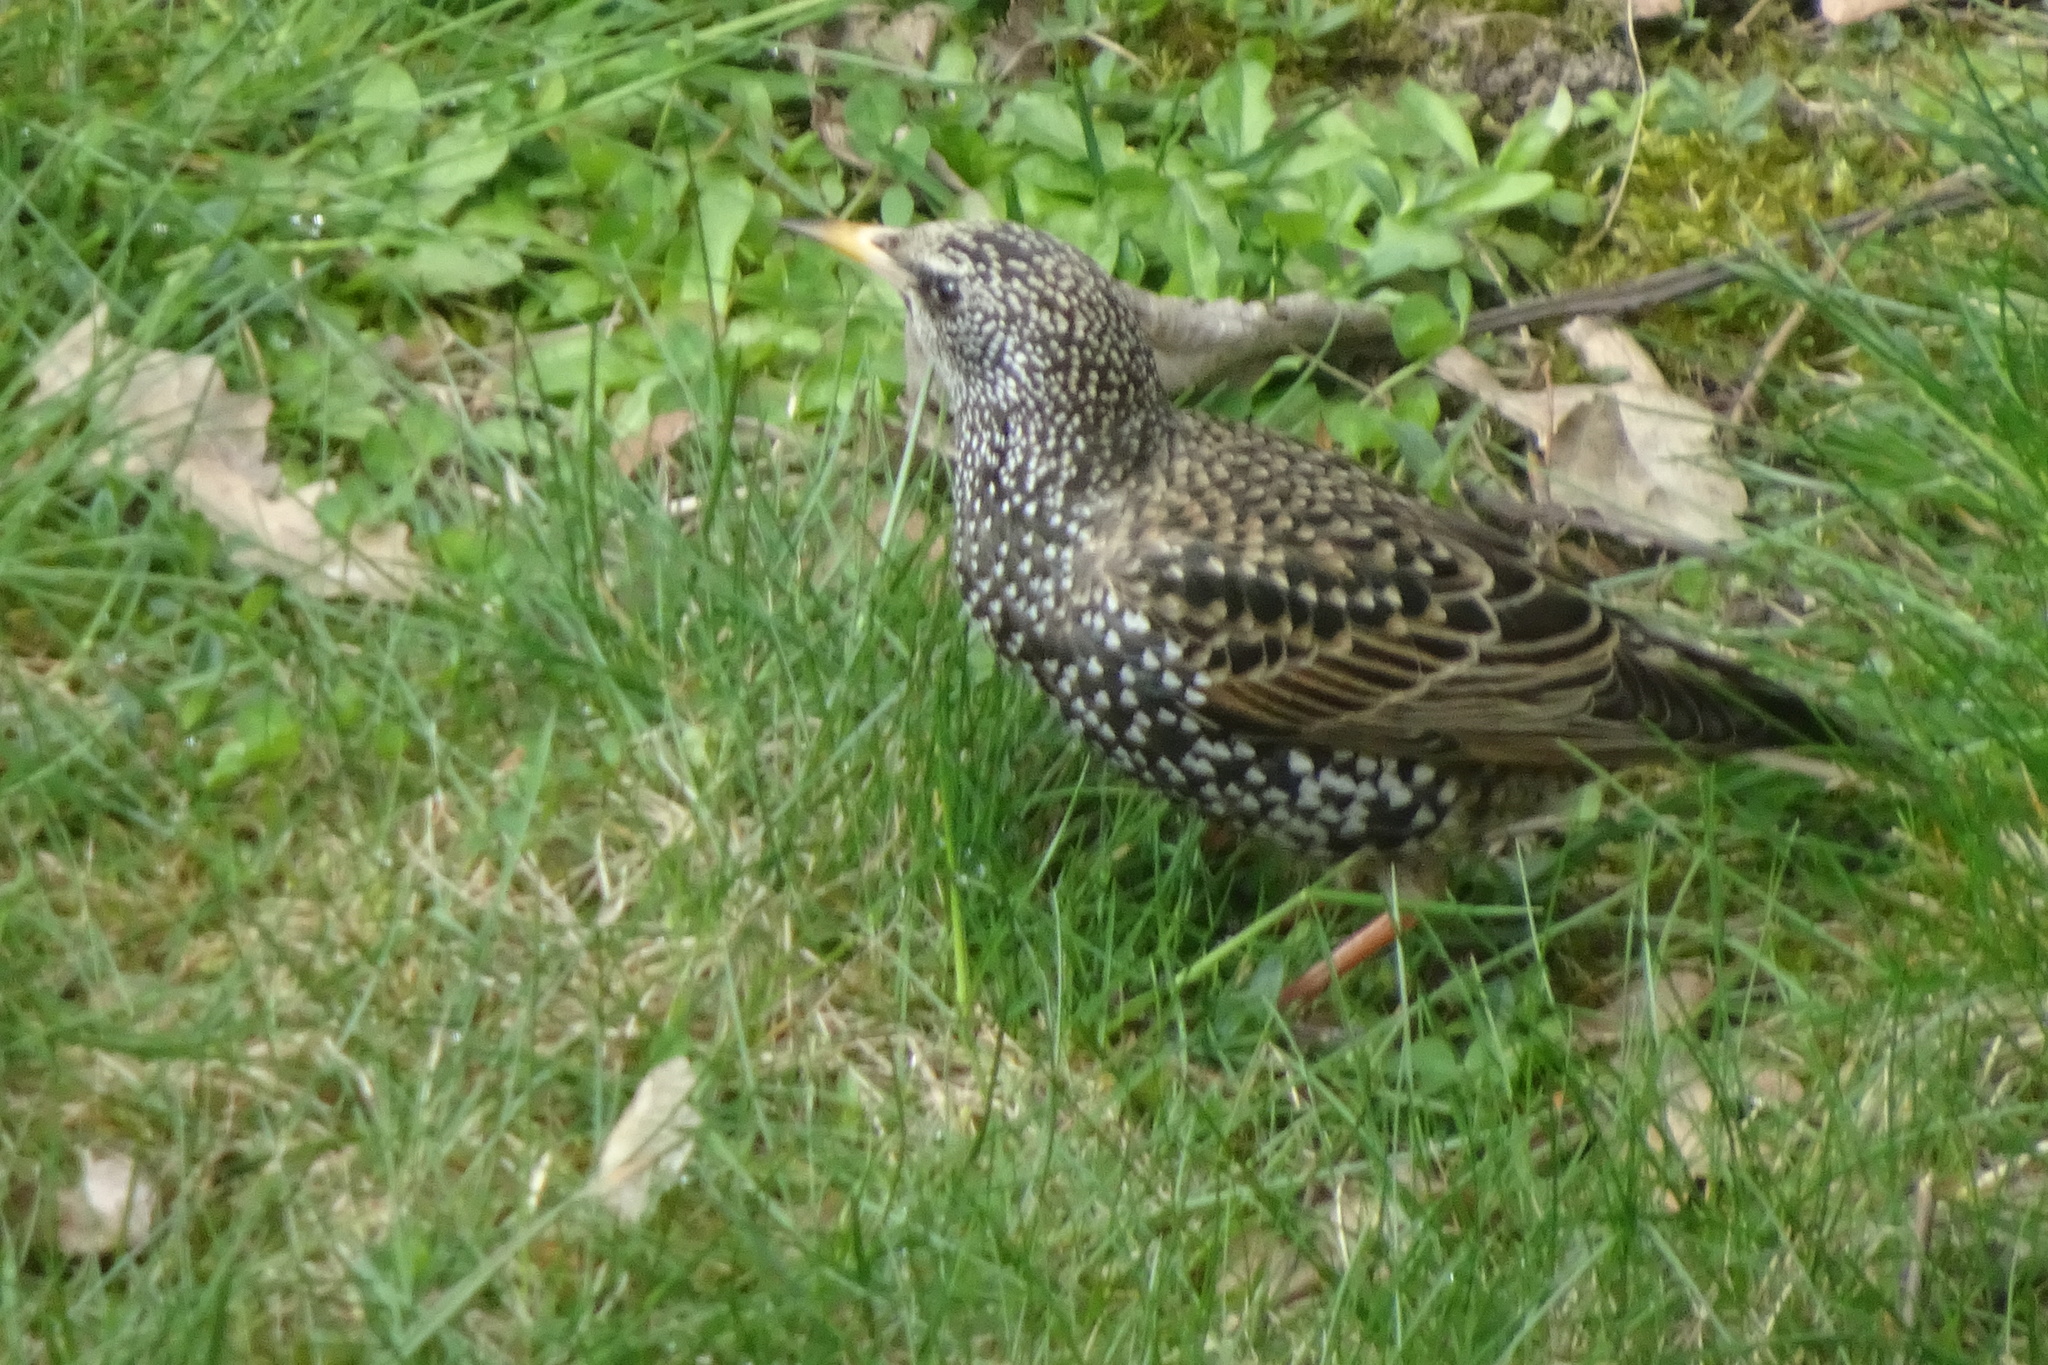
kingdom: Animalia
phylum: Chordata
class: Aves
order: Passeriformes
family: Sturnidae
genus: Sturnus
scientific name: Sturnus vulgaris
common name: Common starling
